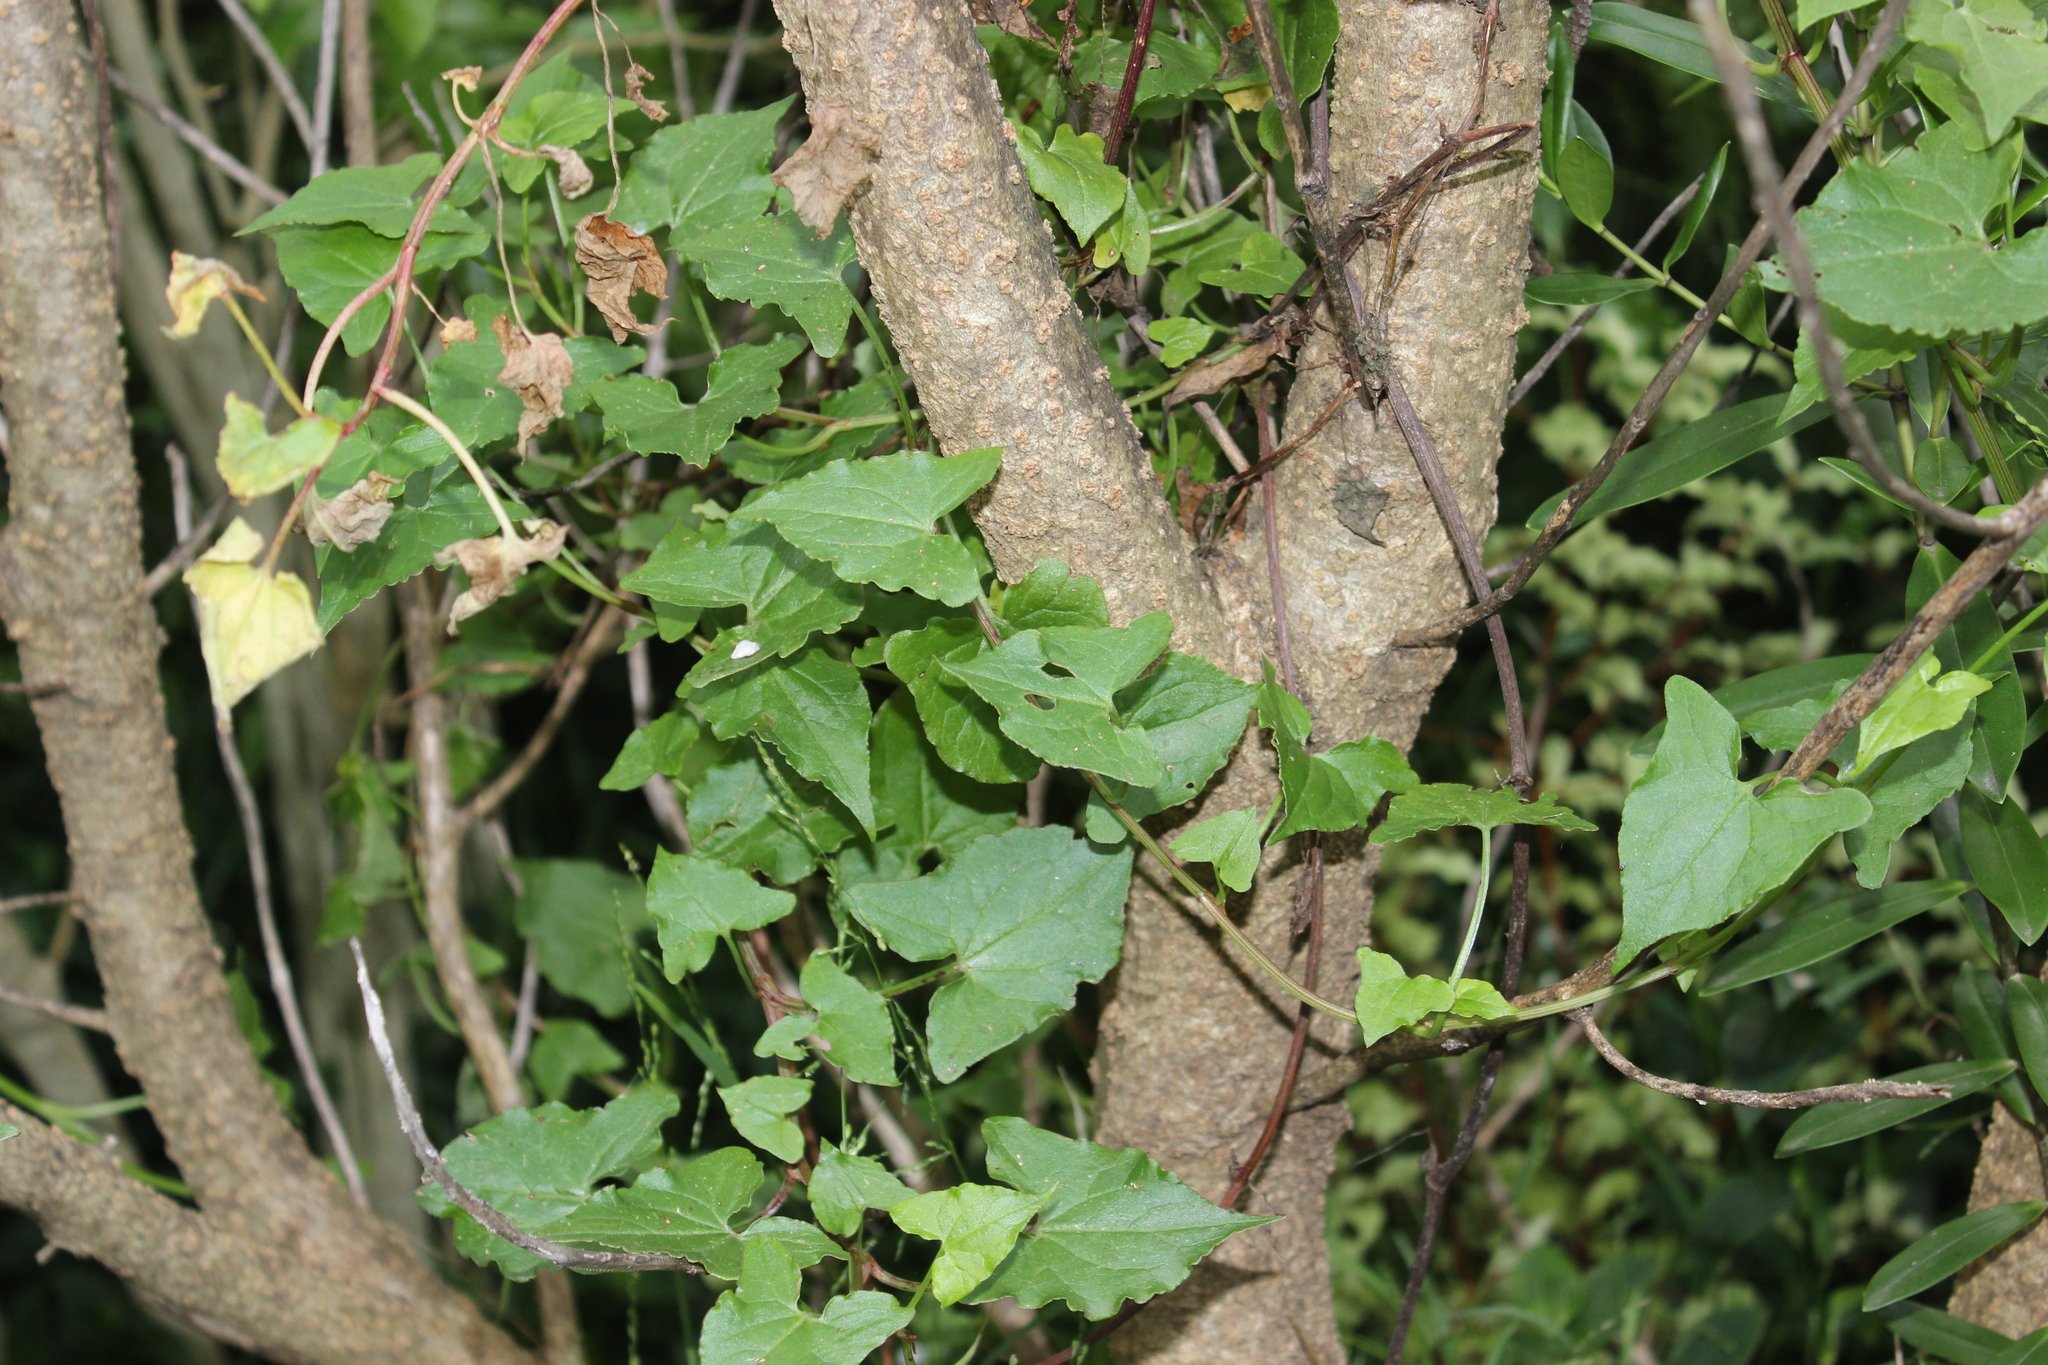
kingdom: Plantae
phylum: Tracheophyta
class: Magnoliopsida
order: Caryophyllales
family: Polygonaceae
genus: Rumex
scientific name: Rumex sagittatus
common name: Climbing dock
